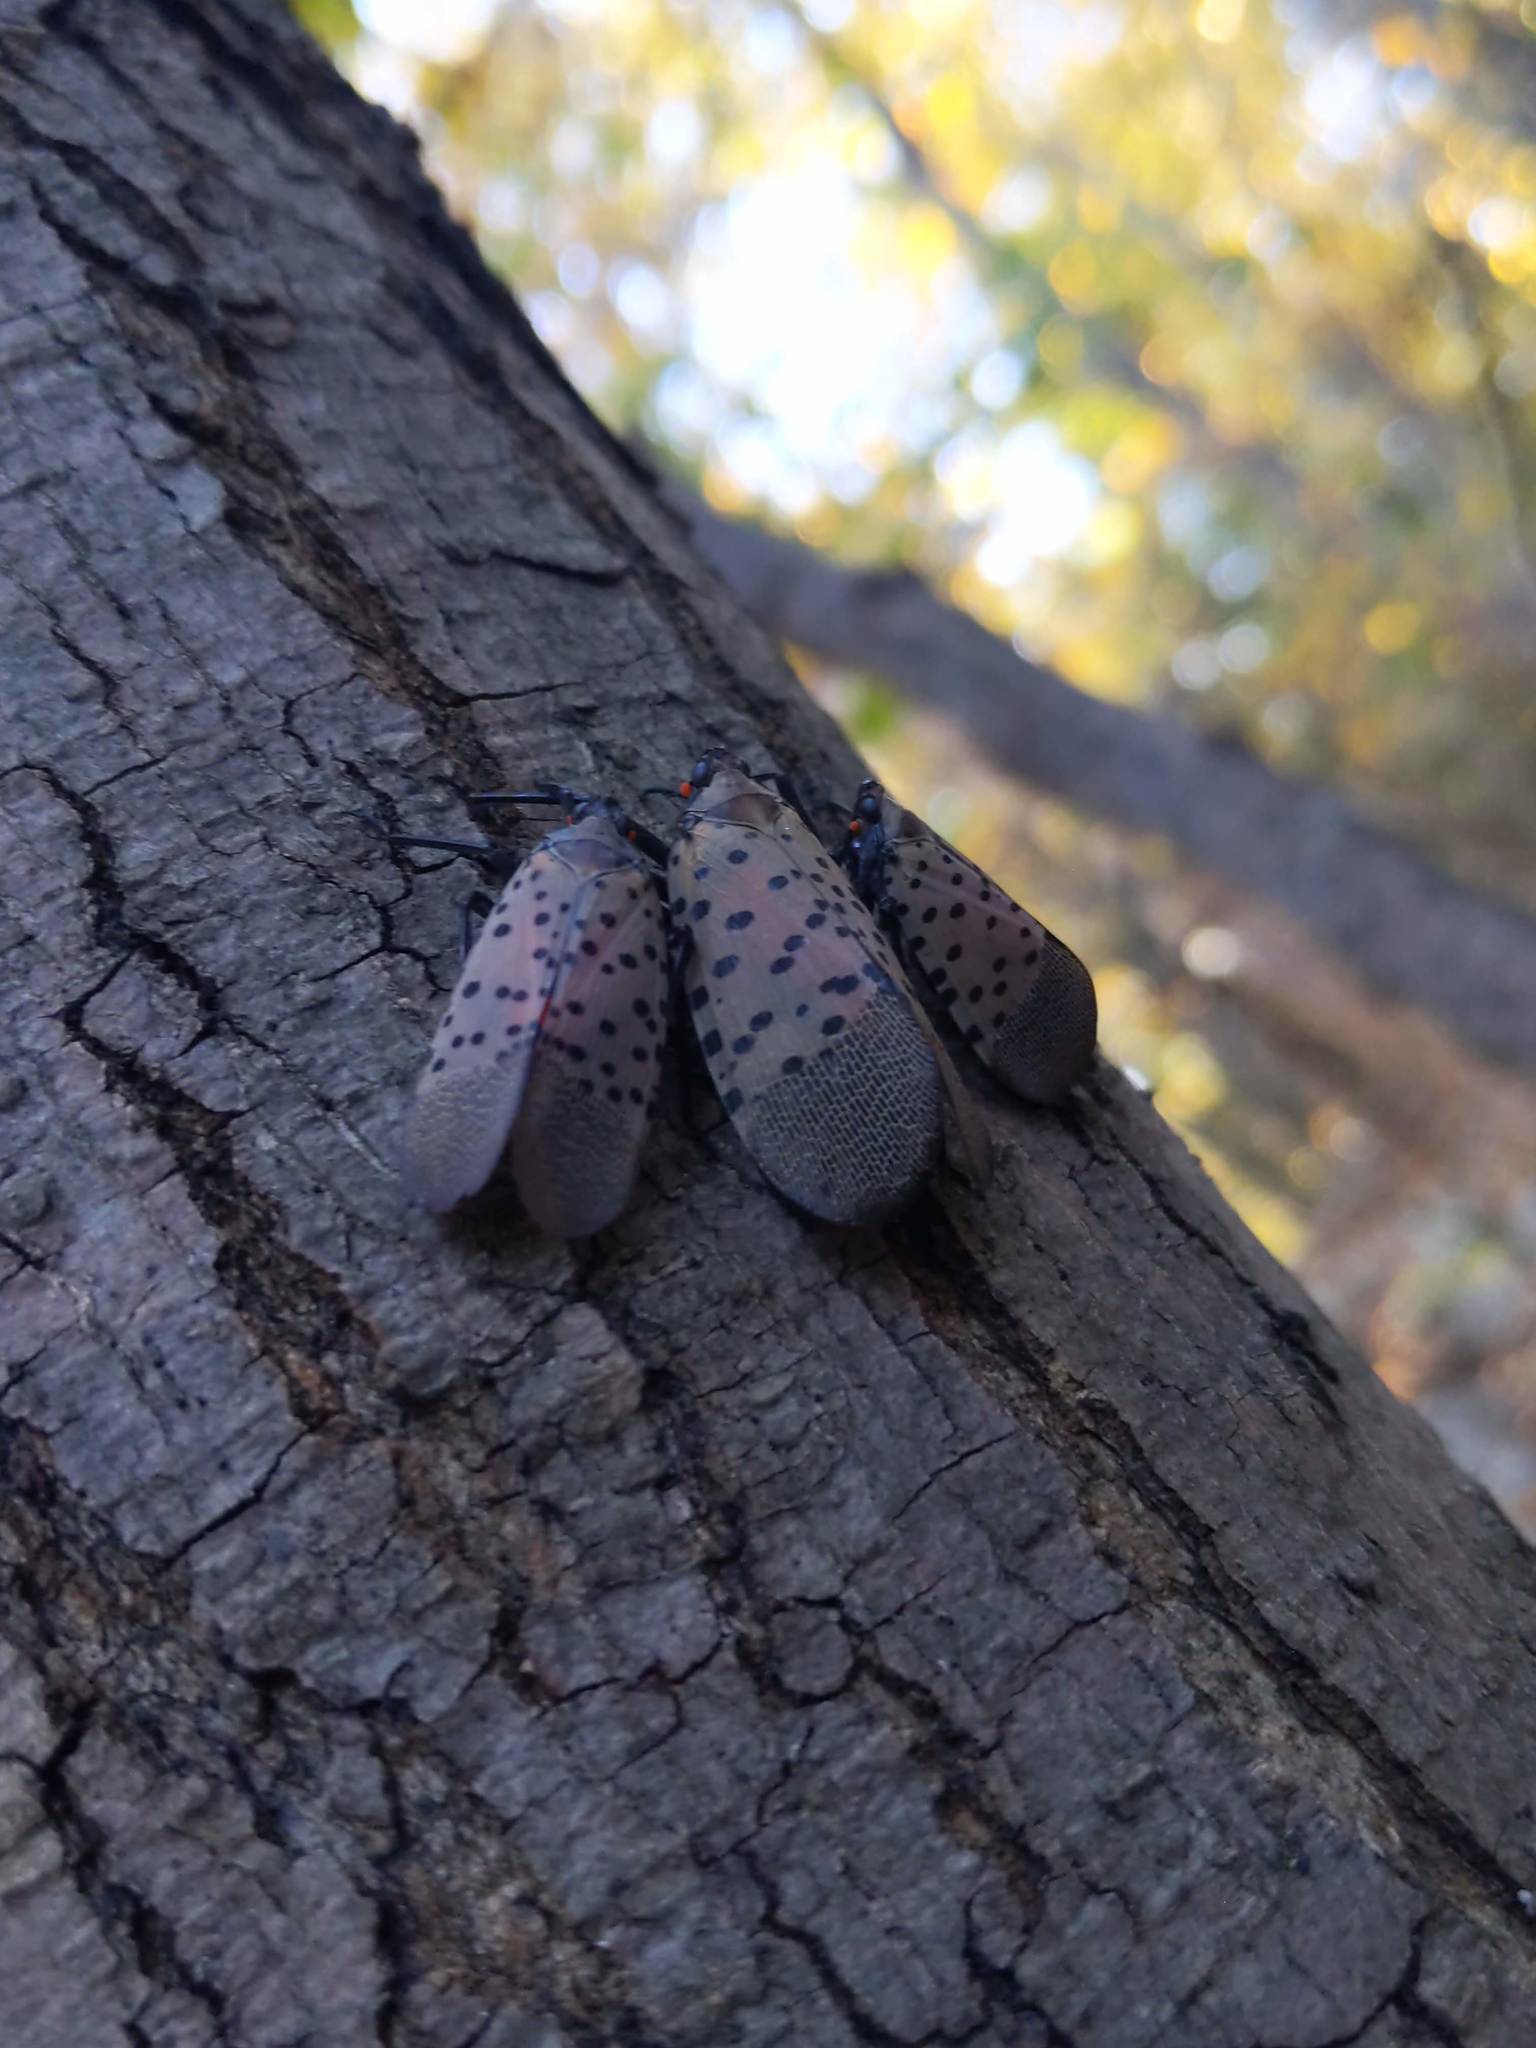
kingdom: Animalia
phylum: Arthropoda
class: Insecta
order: Hemiptera
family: Fulgoridae
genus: Lycorma
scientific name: Lycorma delicatula
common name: Spotted lanternfly
